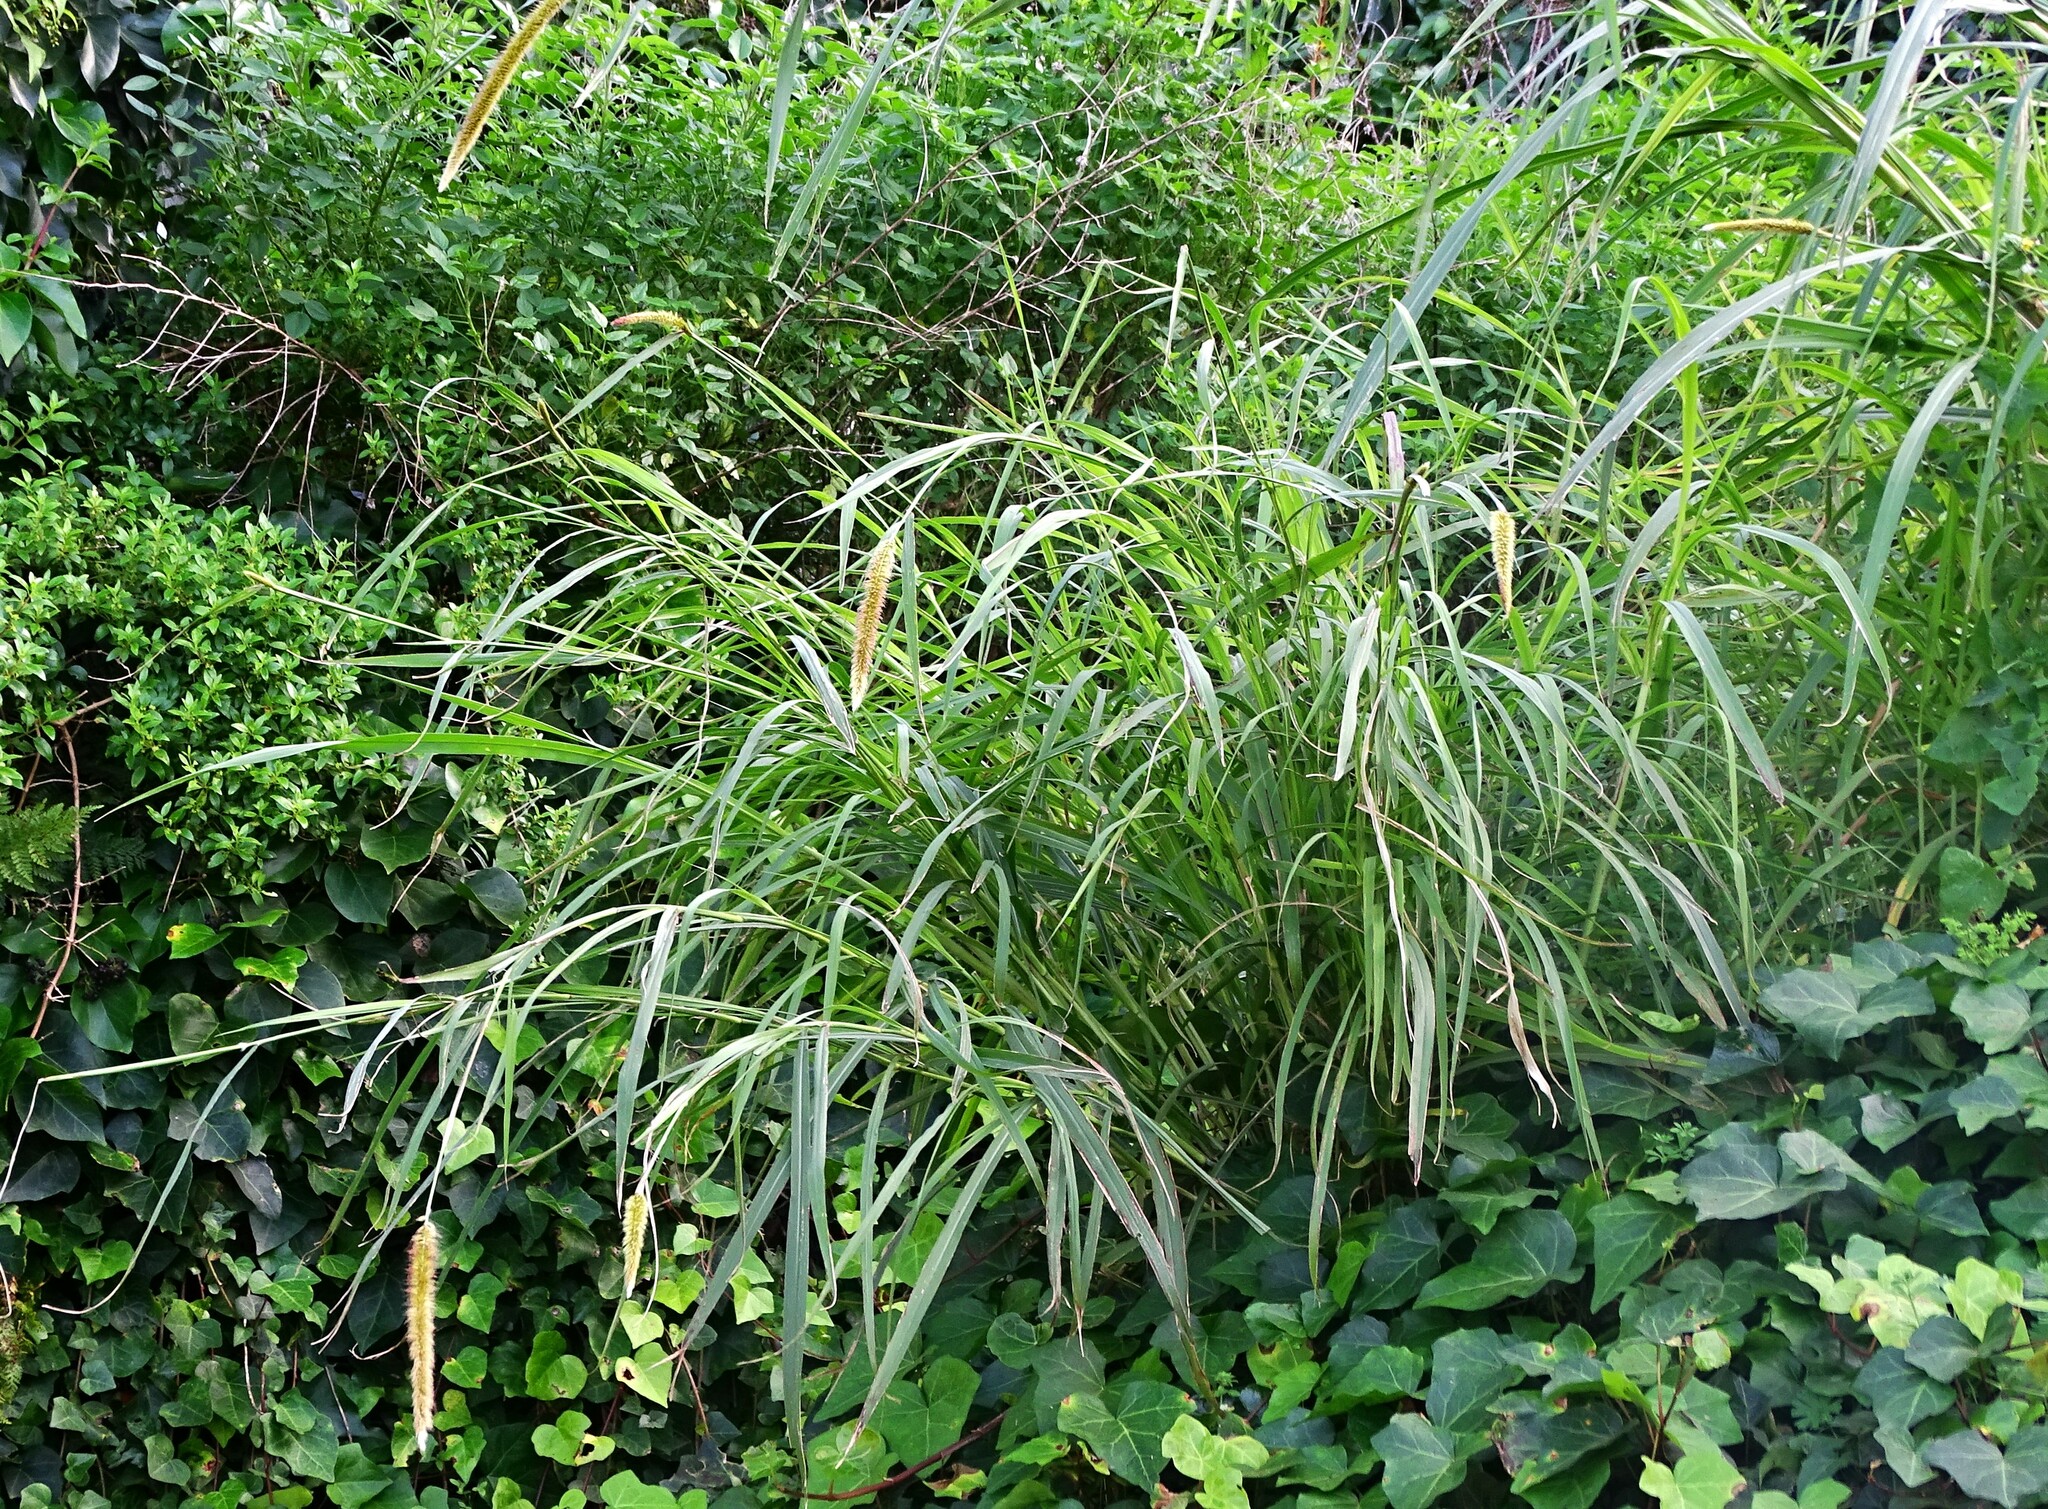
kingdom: Plantae
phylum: Tracheophyta
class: Liliopsida
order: Poales
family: Poaceae
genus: Cenchrus
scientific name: Cenchrus purpureus
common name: Elephant grass
